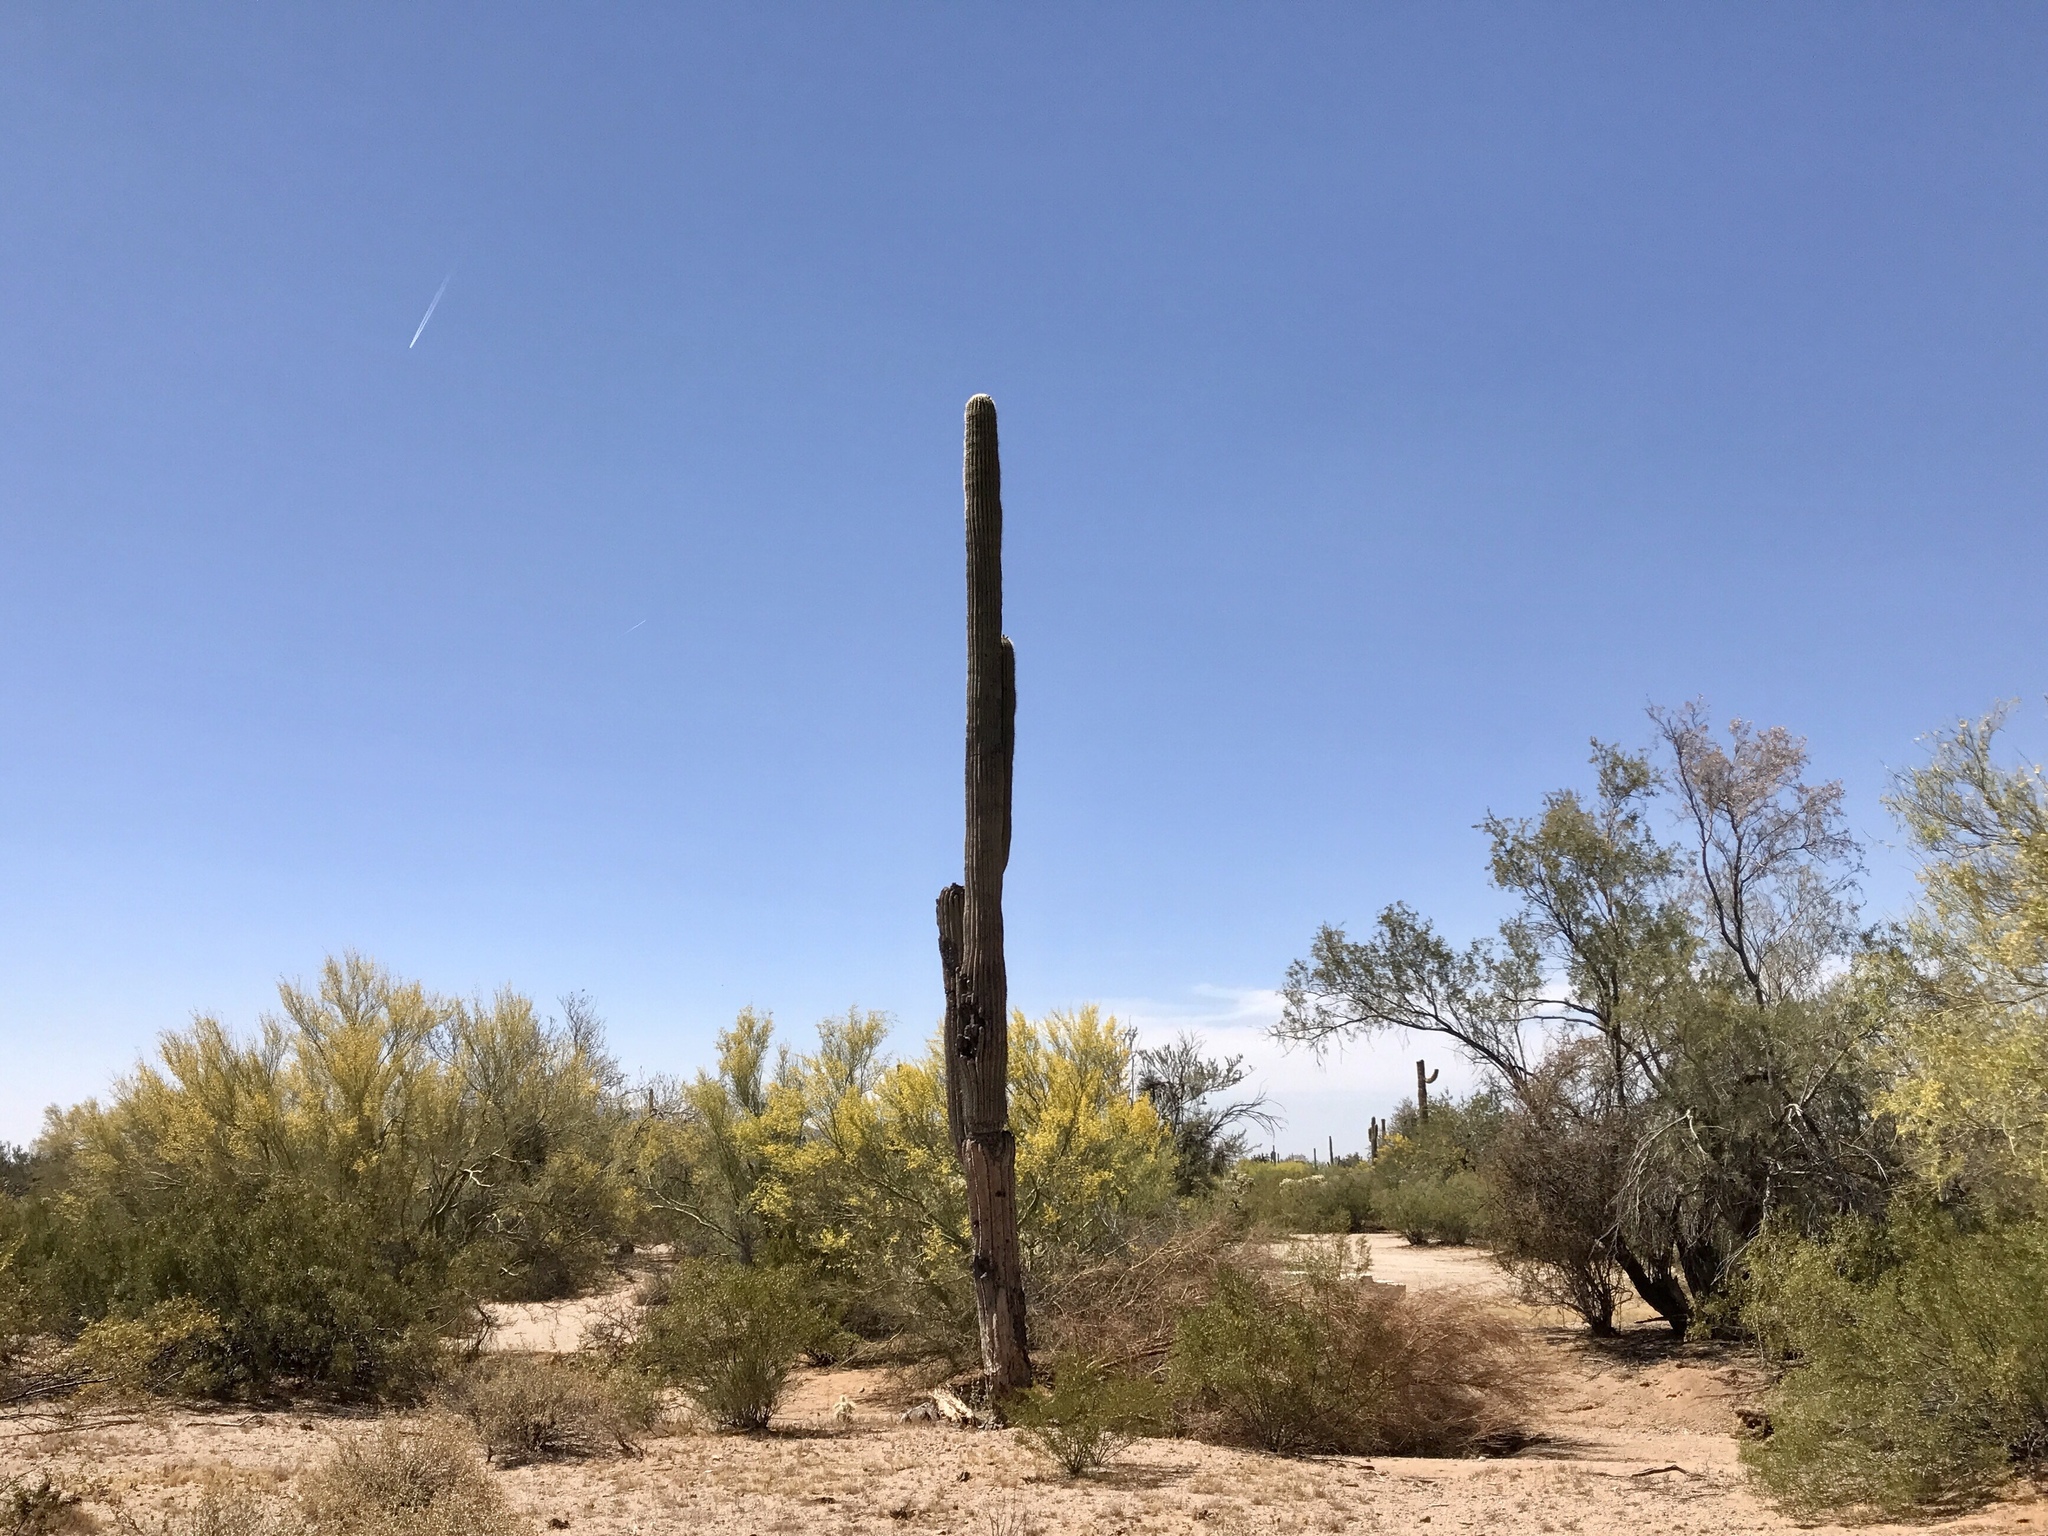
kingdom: Plantae
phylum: Tracheophyta
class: Magnoliopsida
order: Caryophyllales
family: Cactaceae
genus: Carnegiea
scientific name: Carnegiea gigantea
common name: Saguaro
